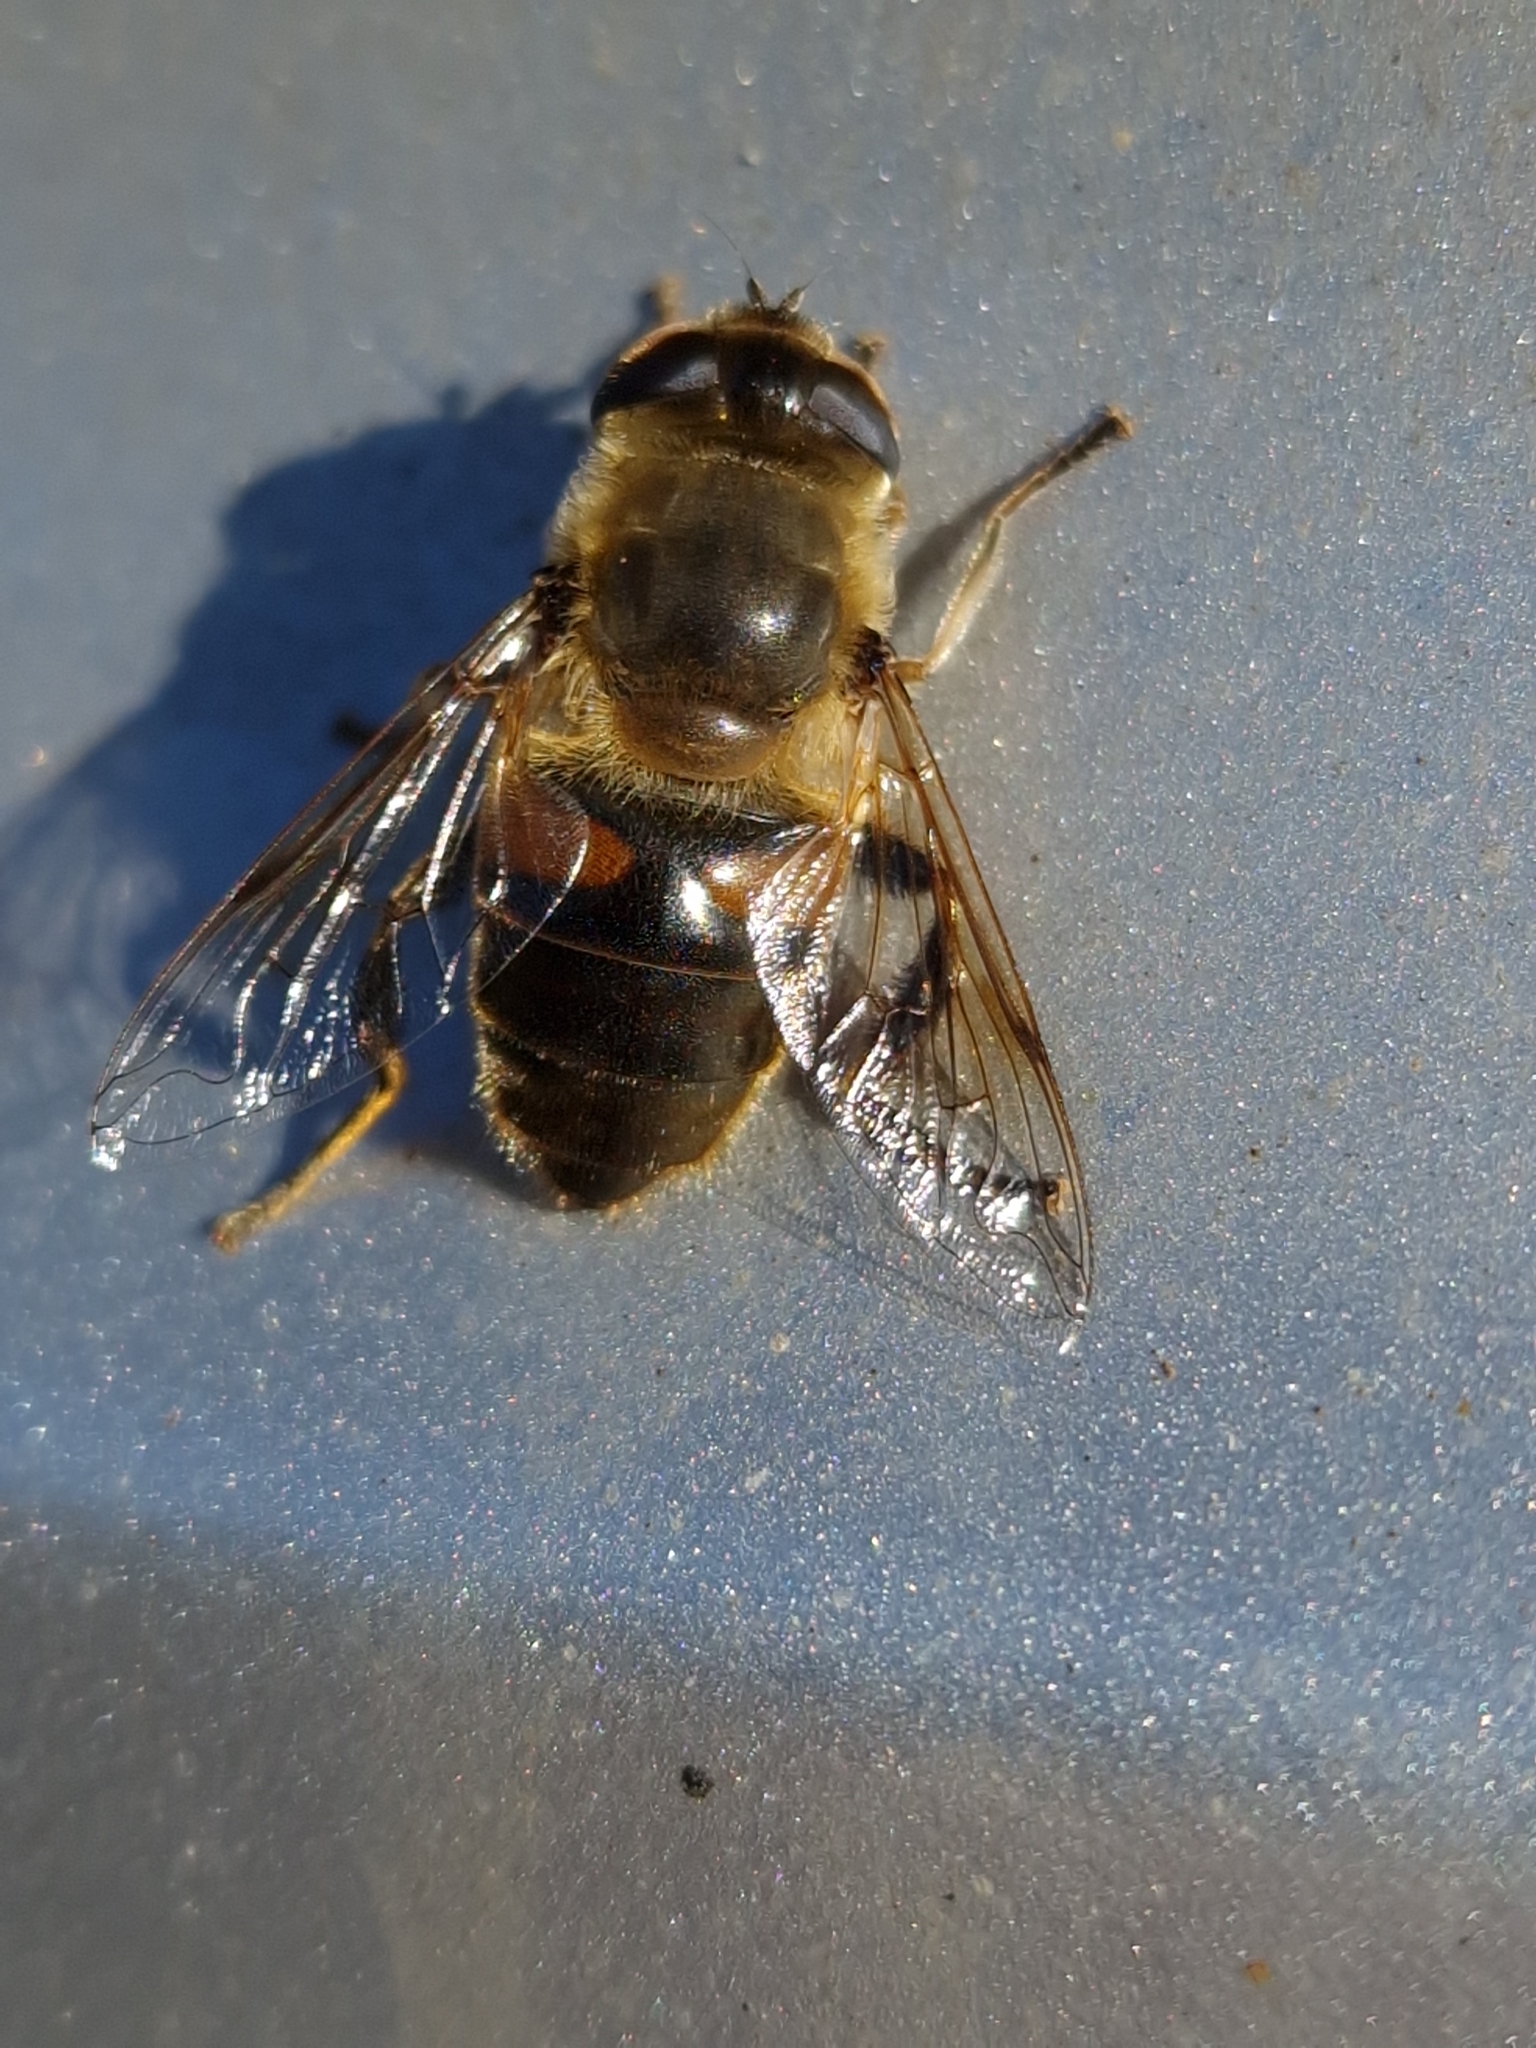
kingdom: Animalia
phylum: Arthropoda
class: Insecta
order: Diptera
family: Syrphidae
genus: Eristalis
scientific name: Eristalis tenax
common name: Drone fly
